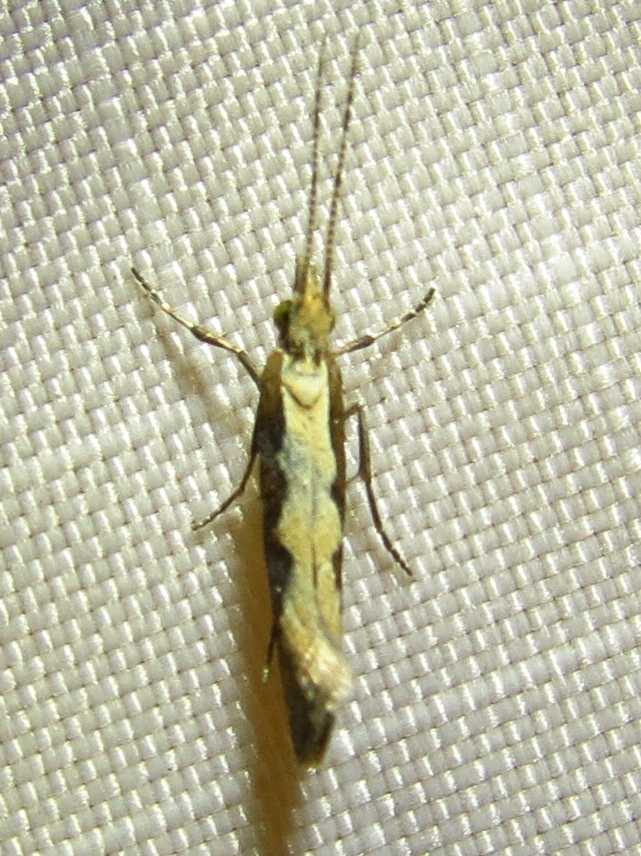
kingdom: Animalia
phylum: Arthropoda
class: Insecta
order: Lepidoptera
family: Plutellidae
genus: Plutella
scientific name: Plutella xylostella
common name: Diamond-back moth
